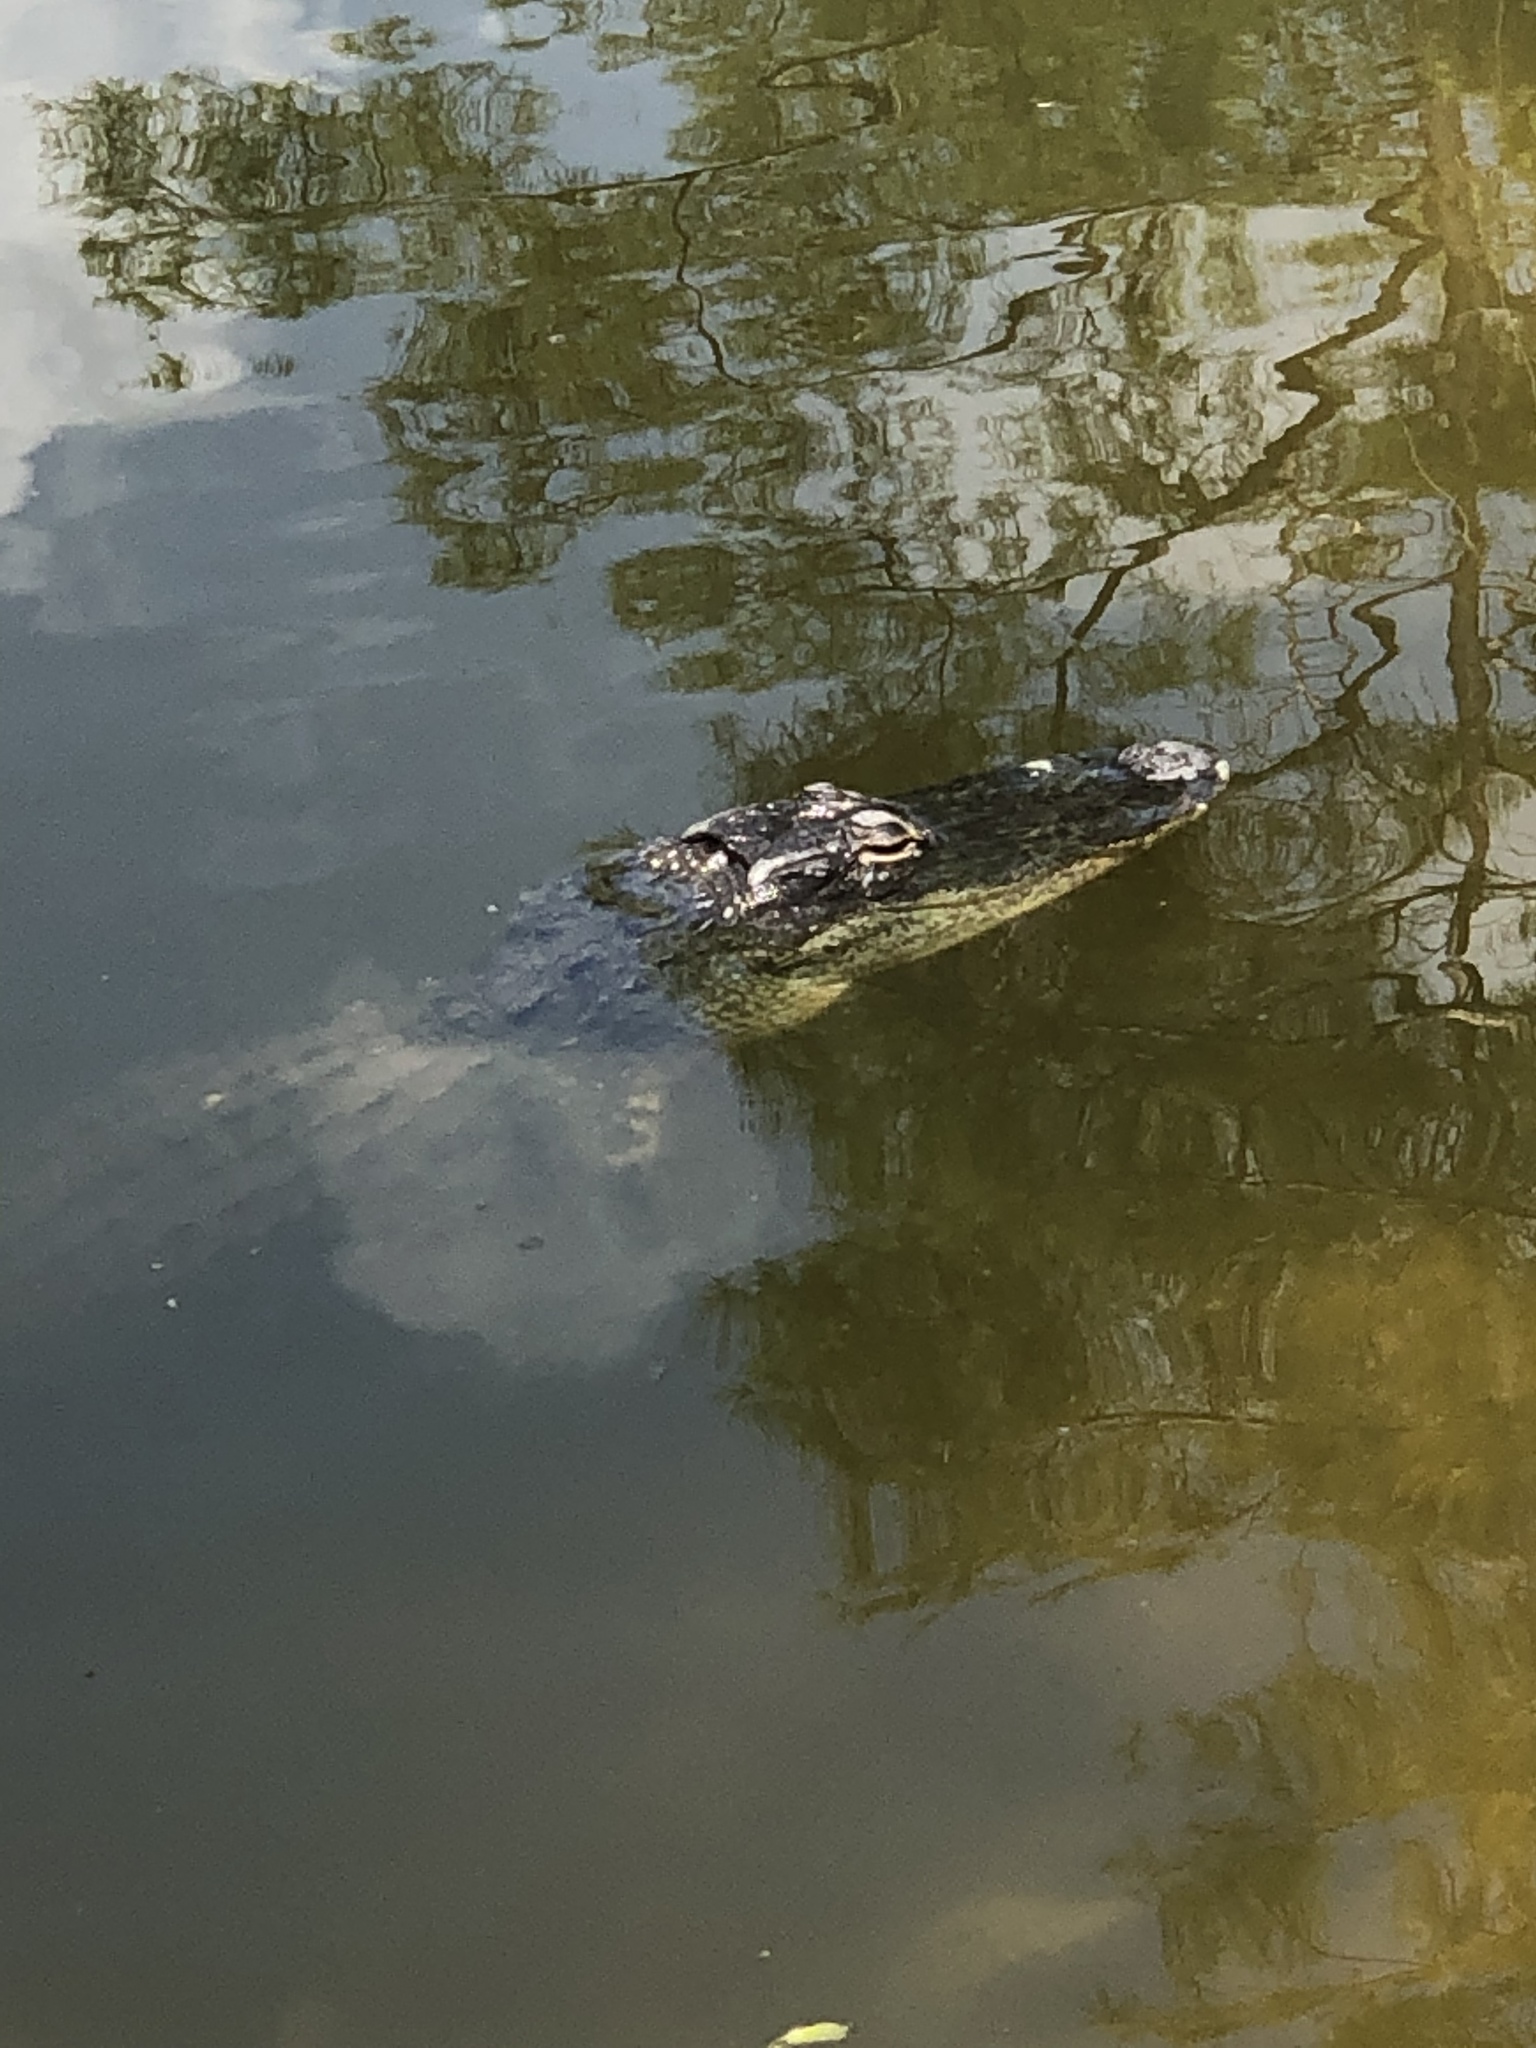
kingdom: Animalia
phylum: Chordata
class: Crocodylia
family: Alligatoridae
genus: Alligator
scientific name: Alligator mississippiensis
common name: American alligator
